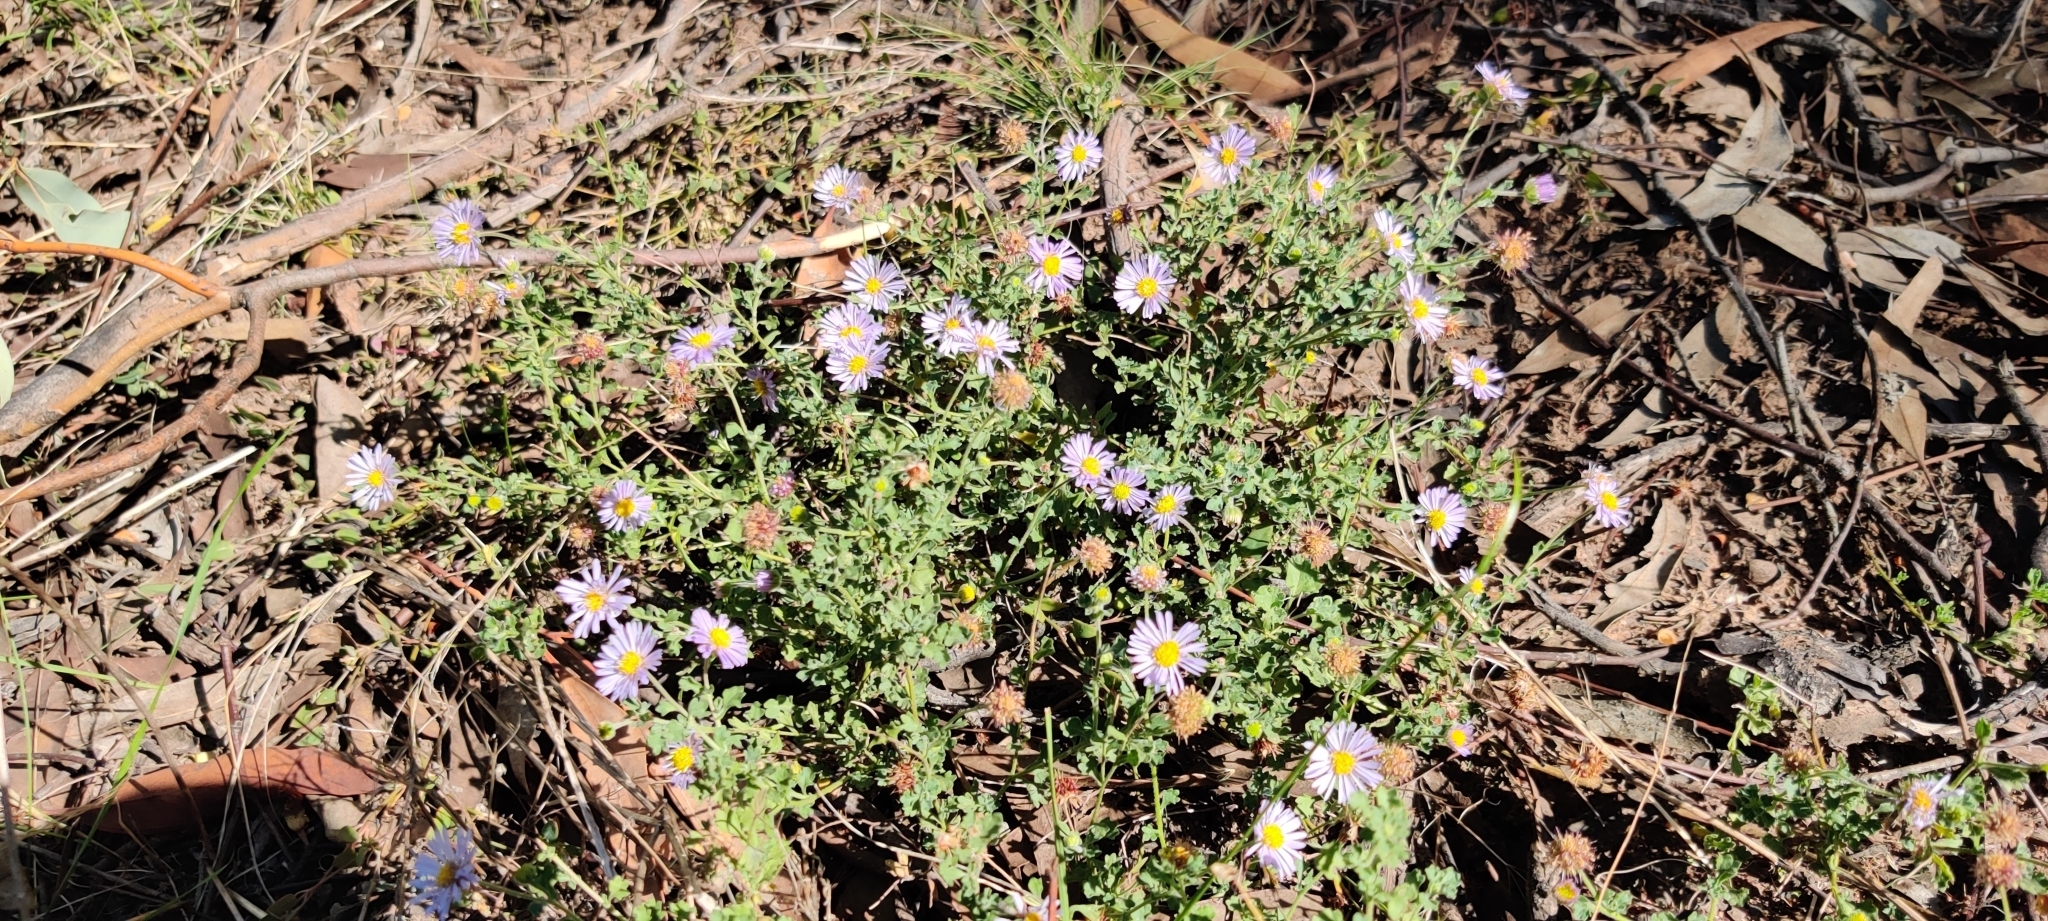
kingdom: Plantae
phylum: Tracheophyta
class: Magnoliopsida
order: Asterales
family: Asteraceae
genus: Calotis
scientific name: Calotis cuneifolia
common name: Bur-daisy
